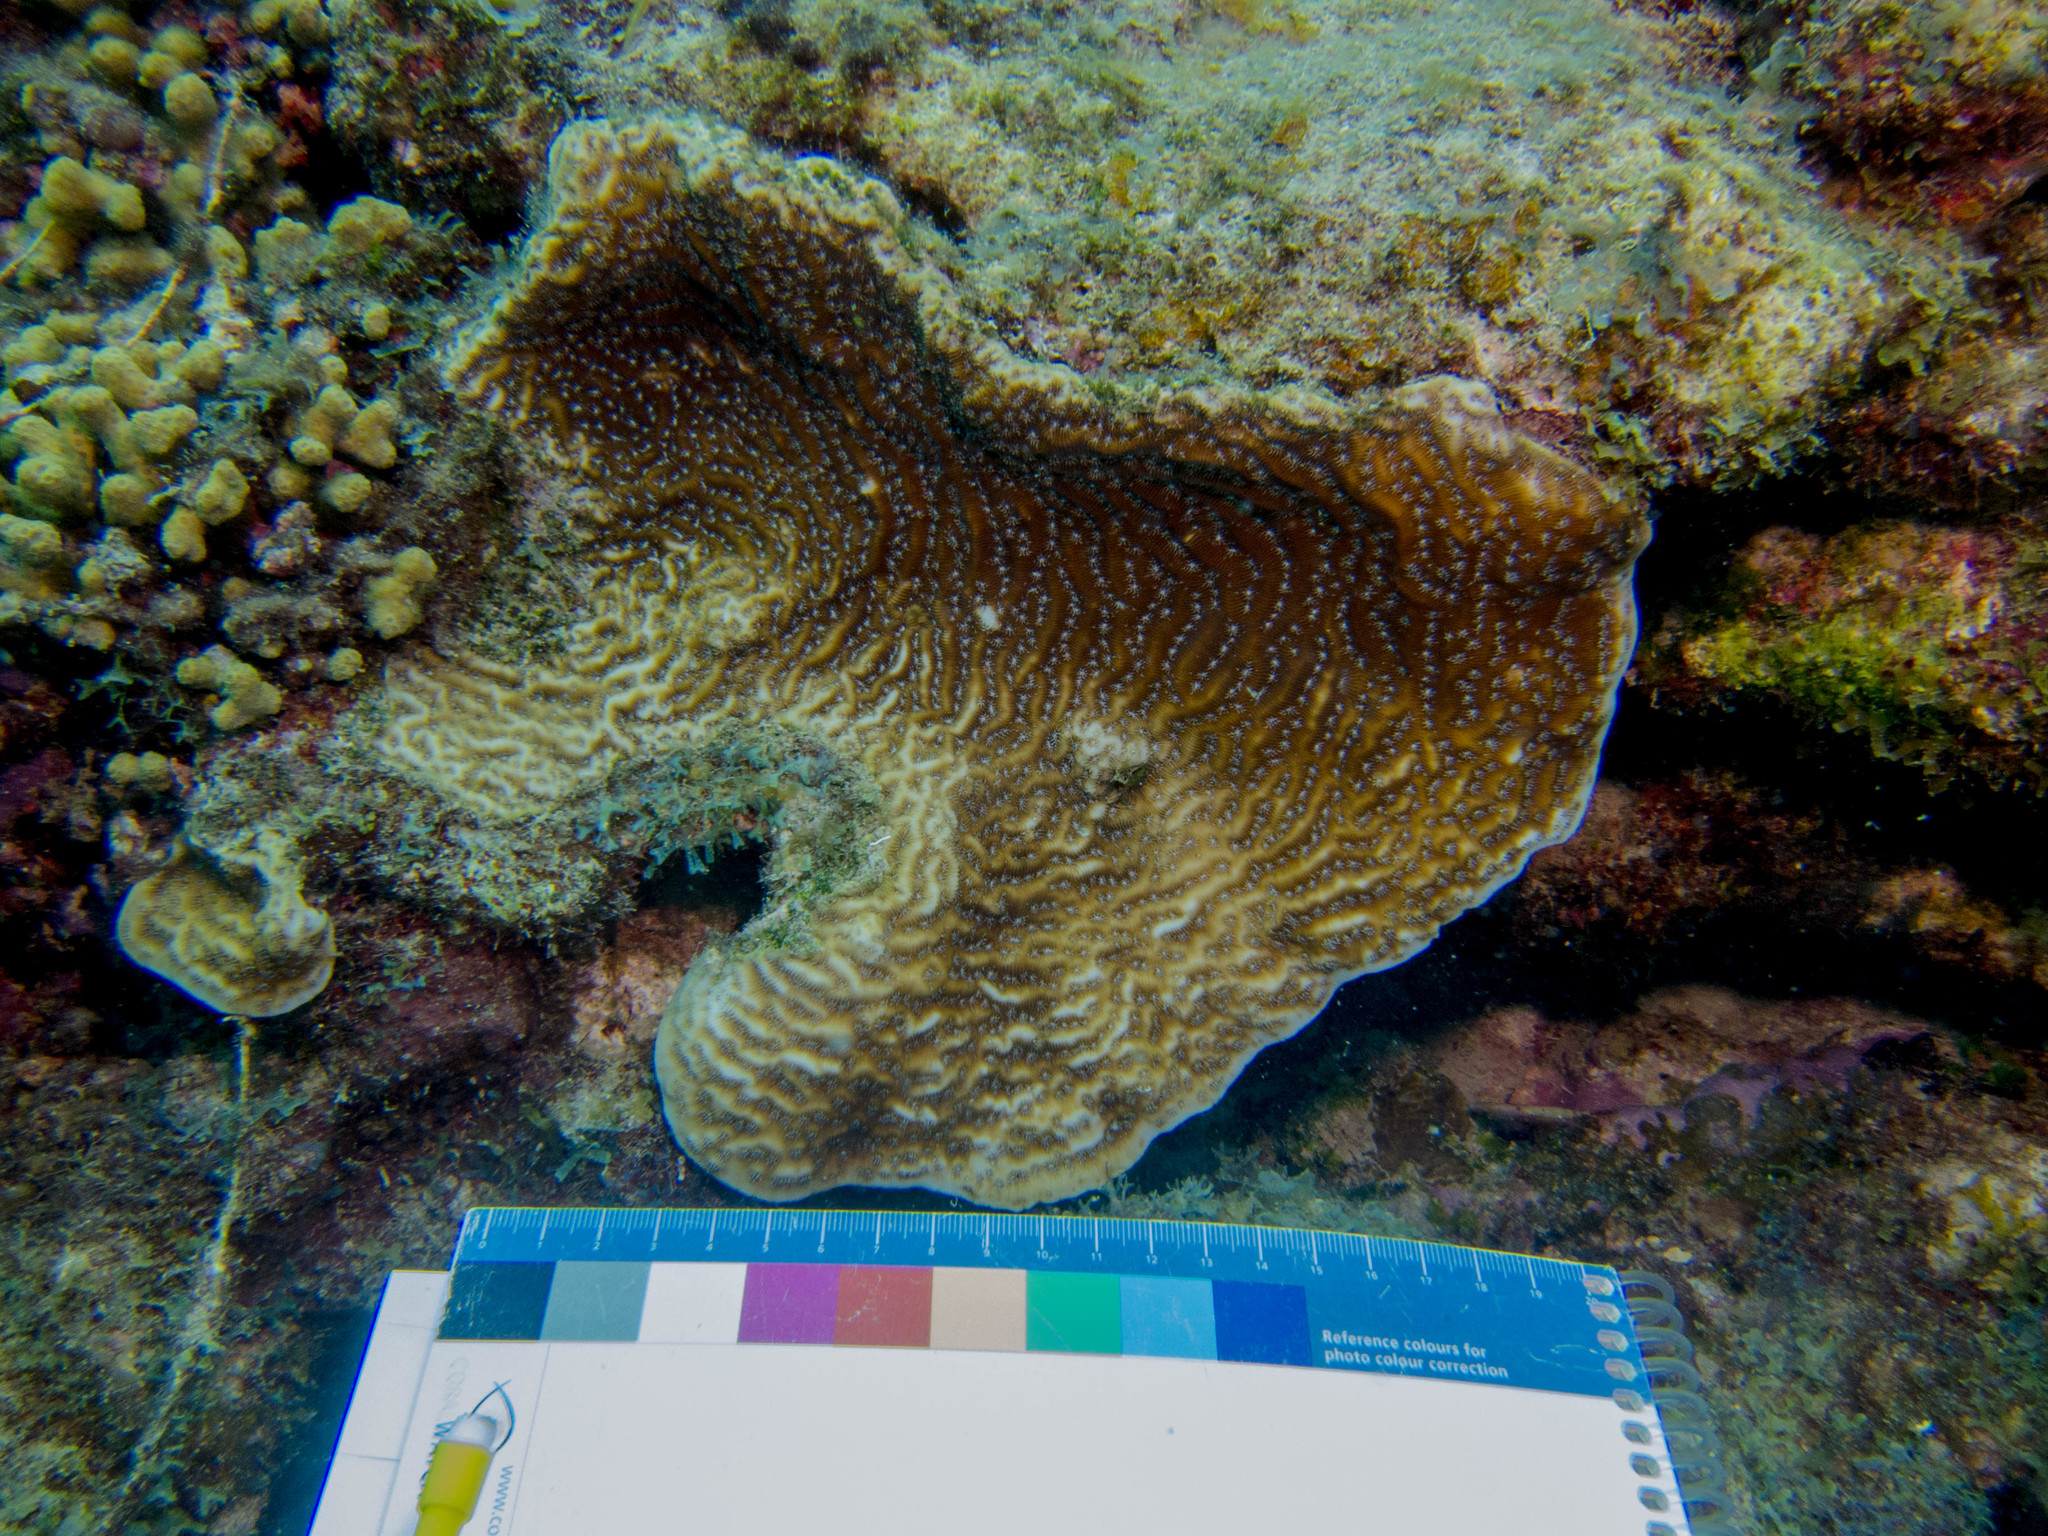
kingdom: Animalia
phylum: Cnidaria
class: Anthozoa
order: Scleractinia
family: Agariciidae
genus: Agaricia
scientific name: Agaricia lamarcki
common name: Lamarck's sheet coral
